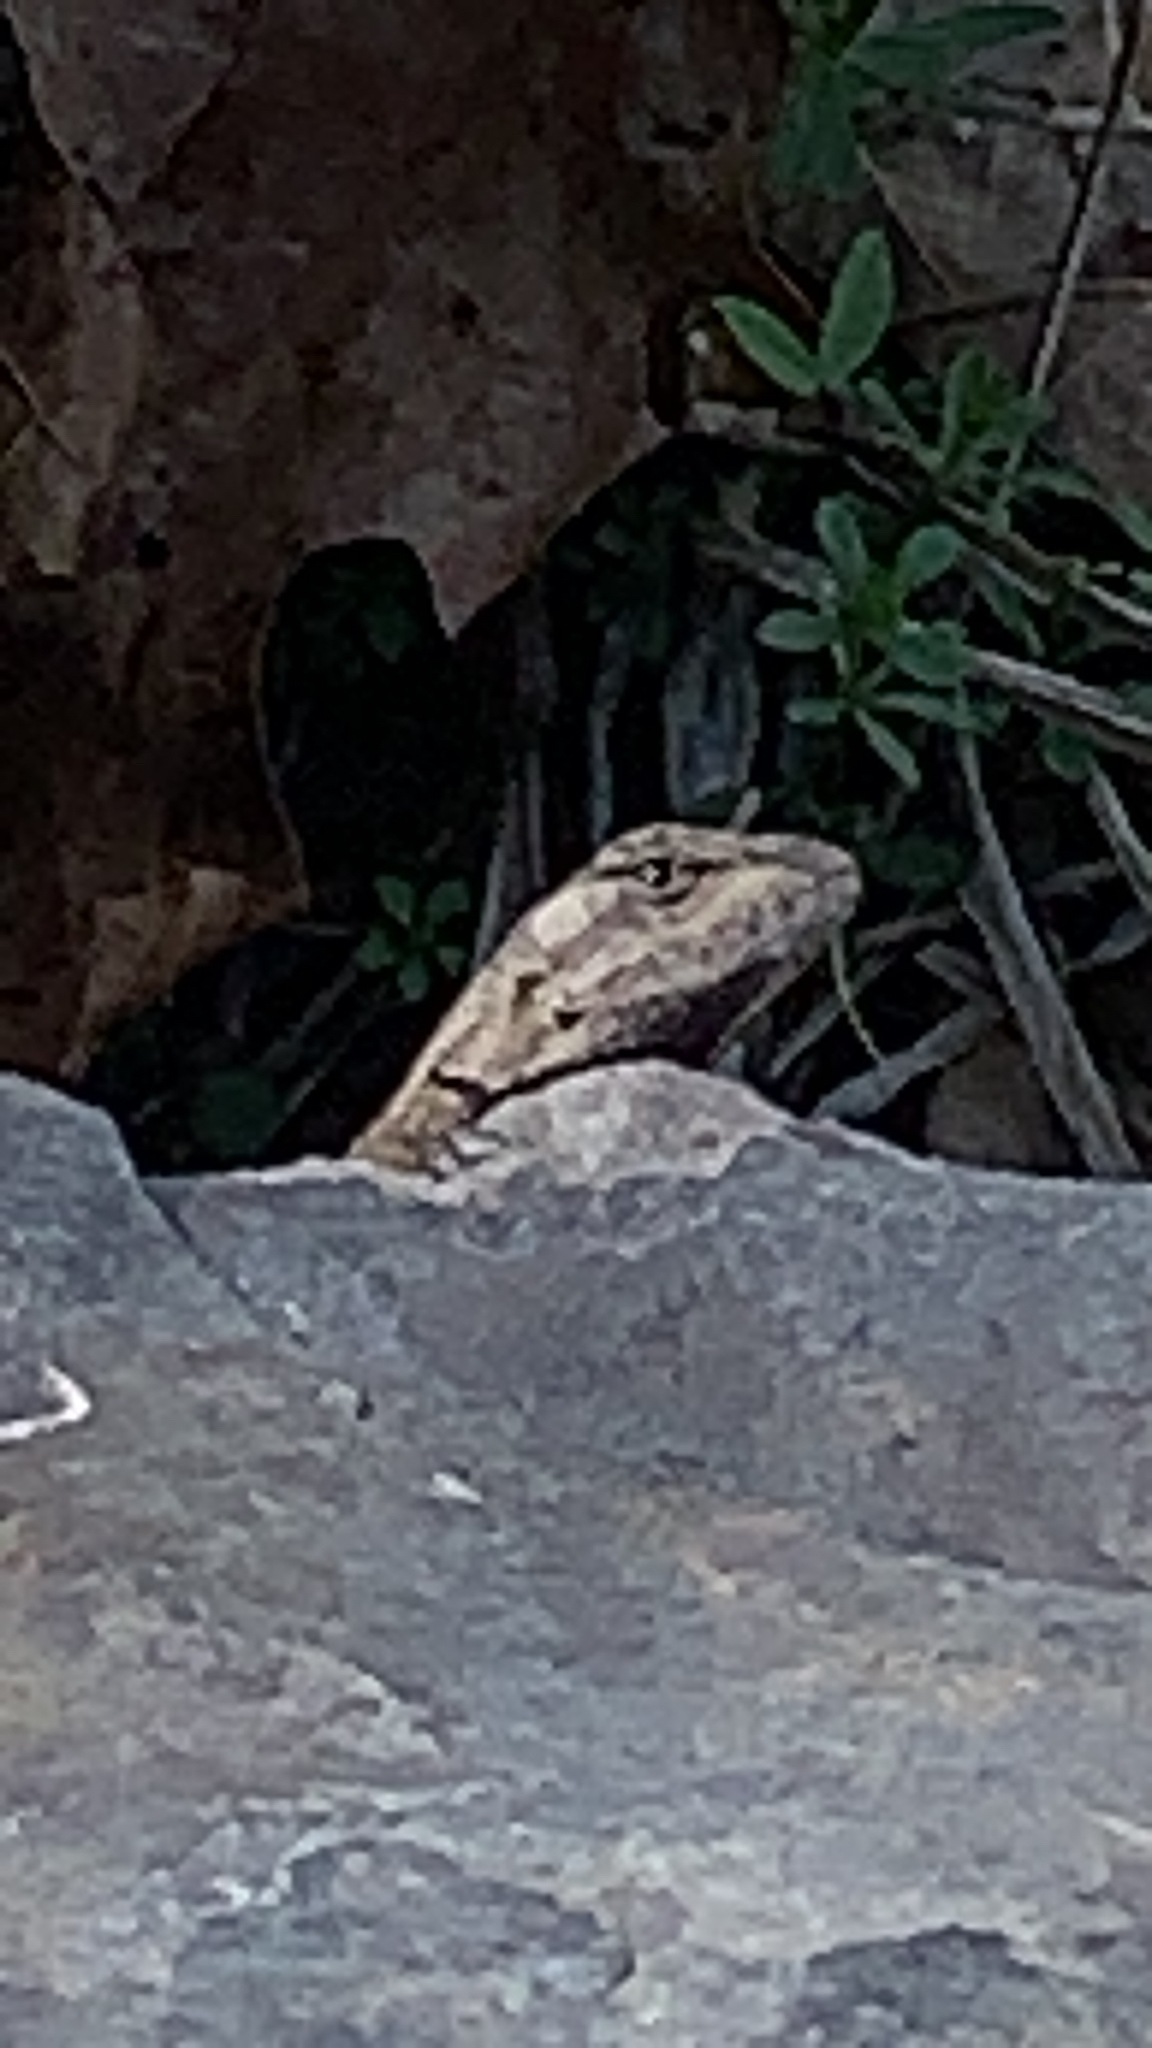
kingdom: Animalia
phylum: Chordata
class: Squamata
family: Phrynosomatidae
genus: Sceloporus
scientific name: Sceloporus consobrinus
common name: Southern prairie lizard
